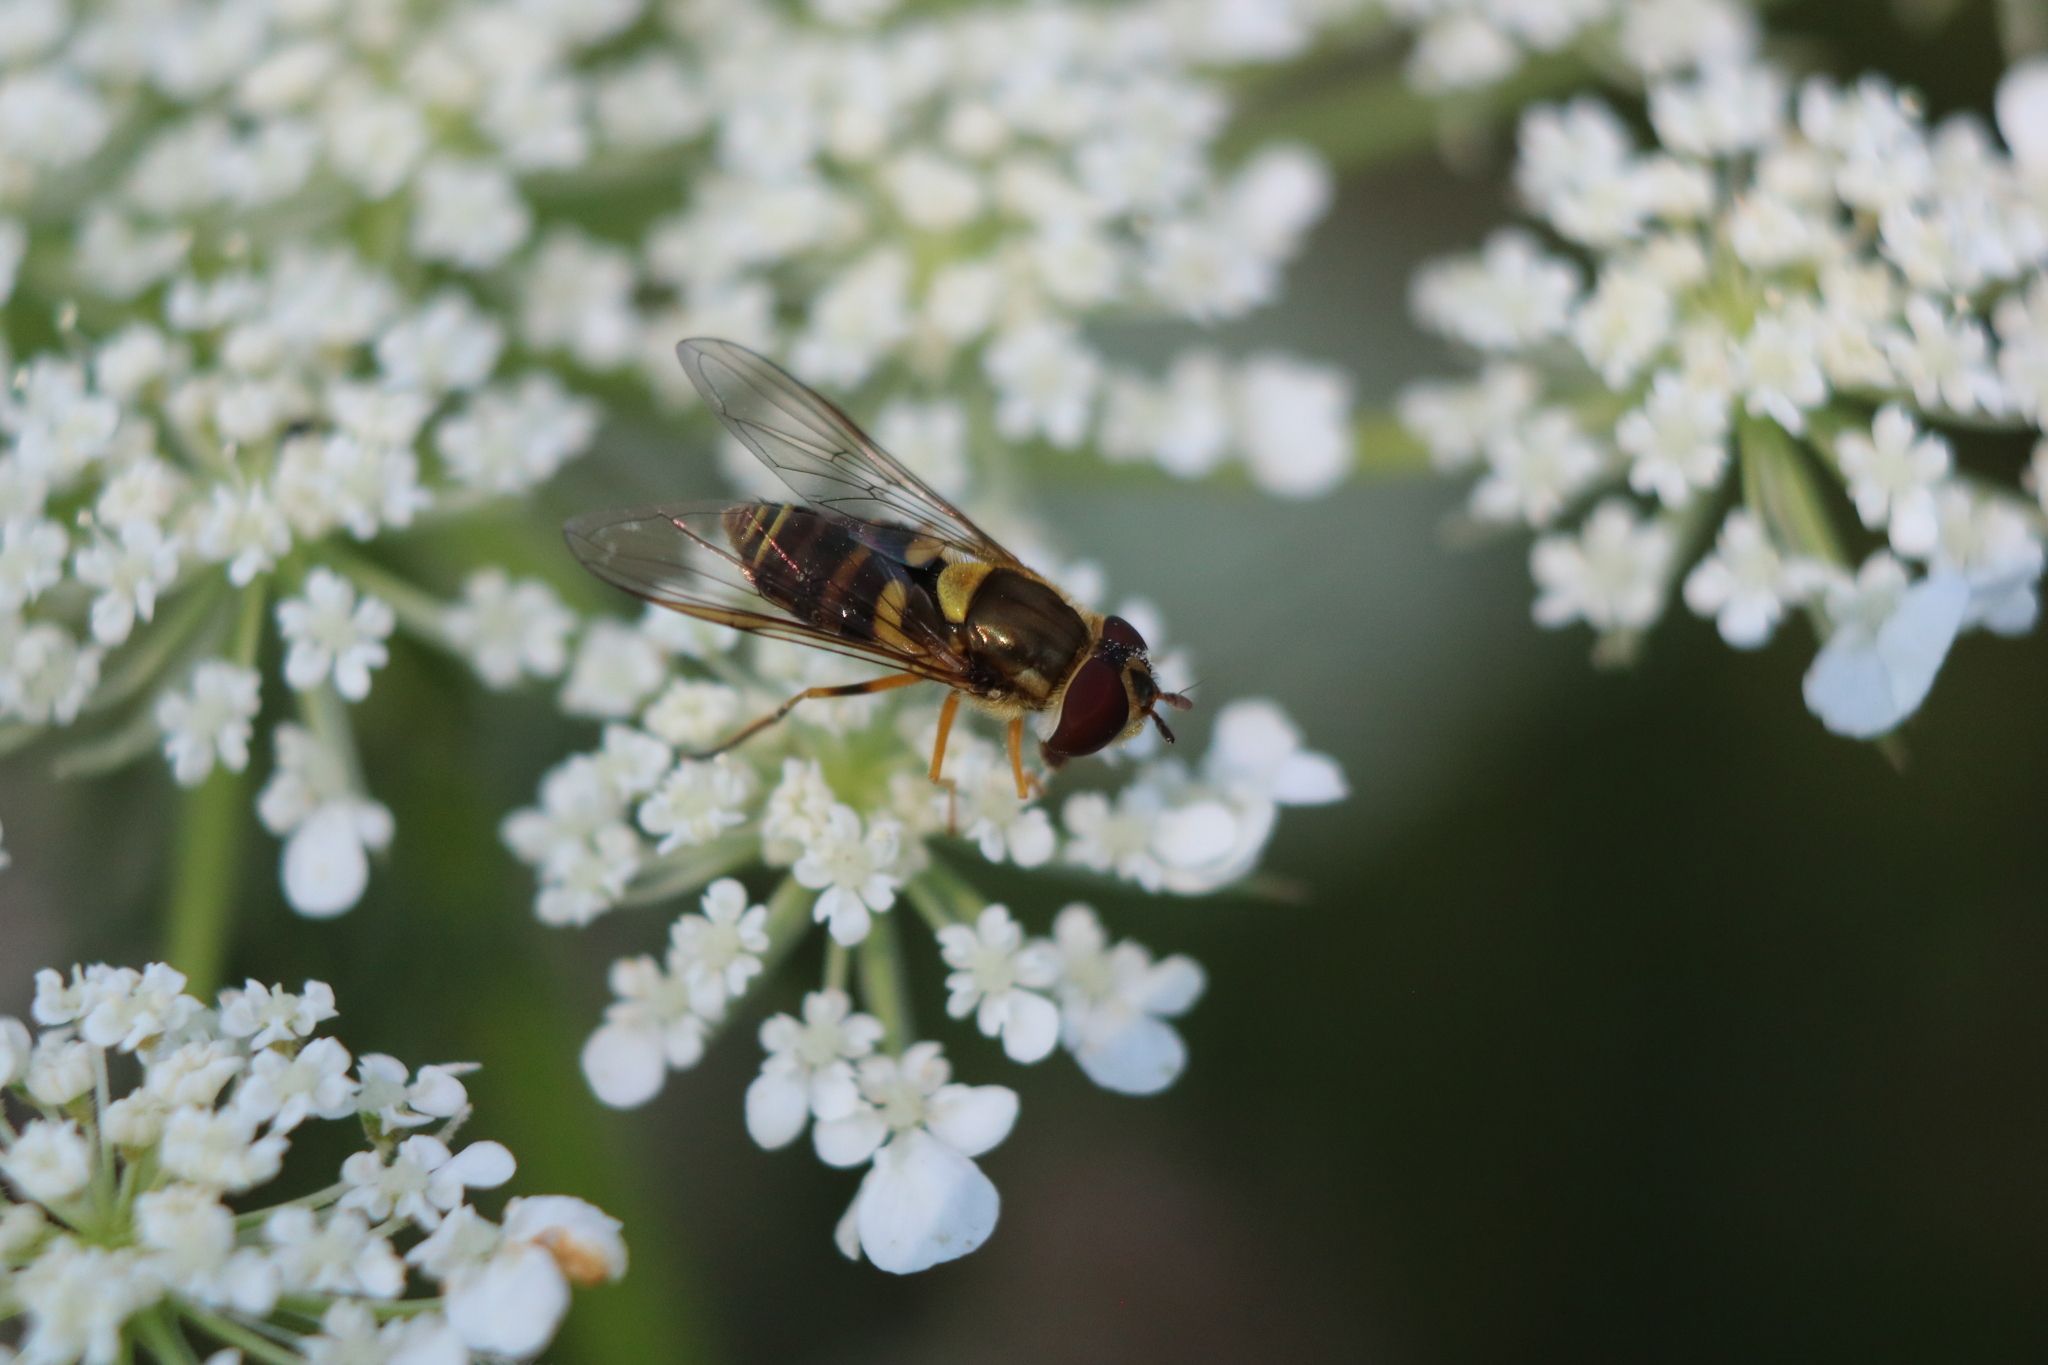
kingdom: Animalia
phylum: Arthropoda
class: Insecta
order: Diptera
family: Syrphidae
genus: Syrphus
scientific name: Syrphus rectus
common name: Yellow-legged flower fly
